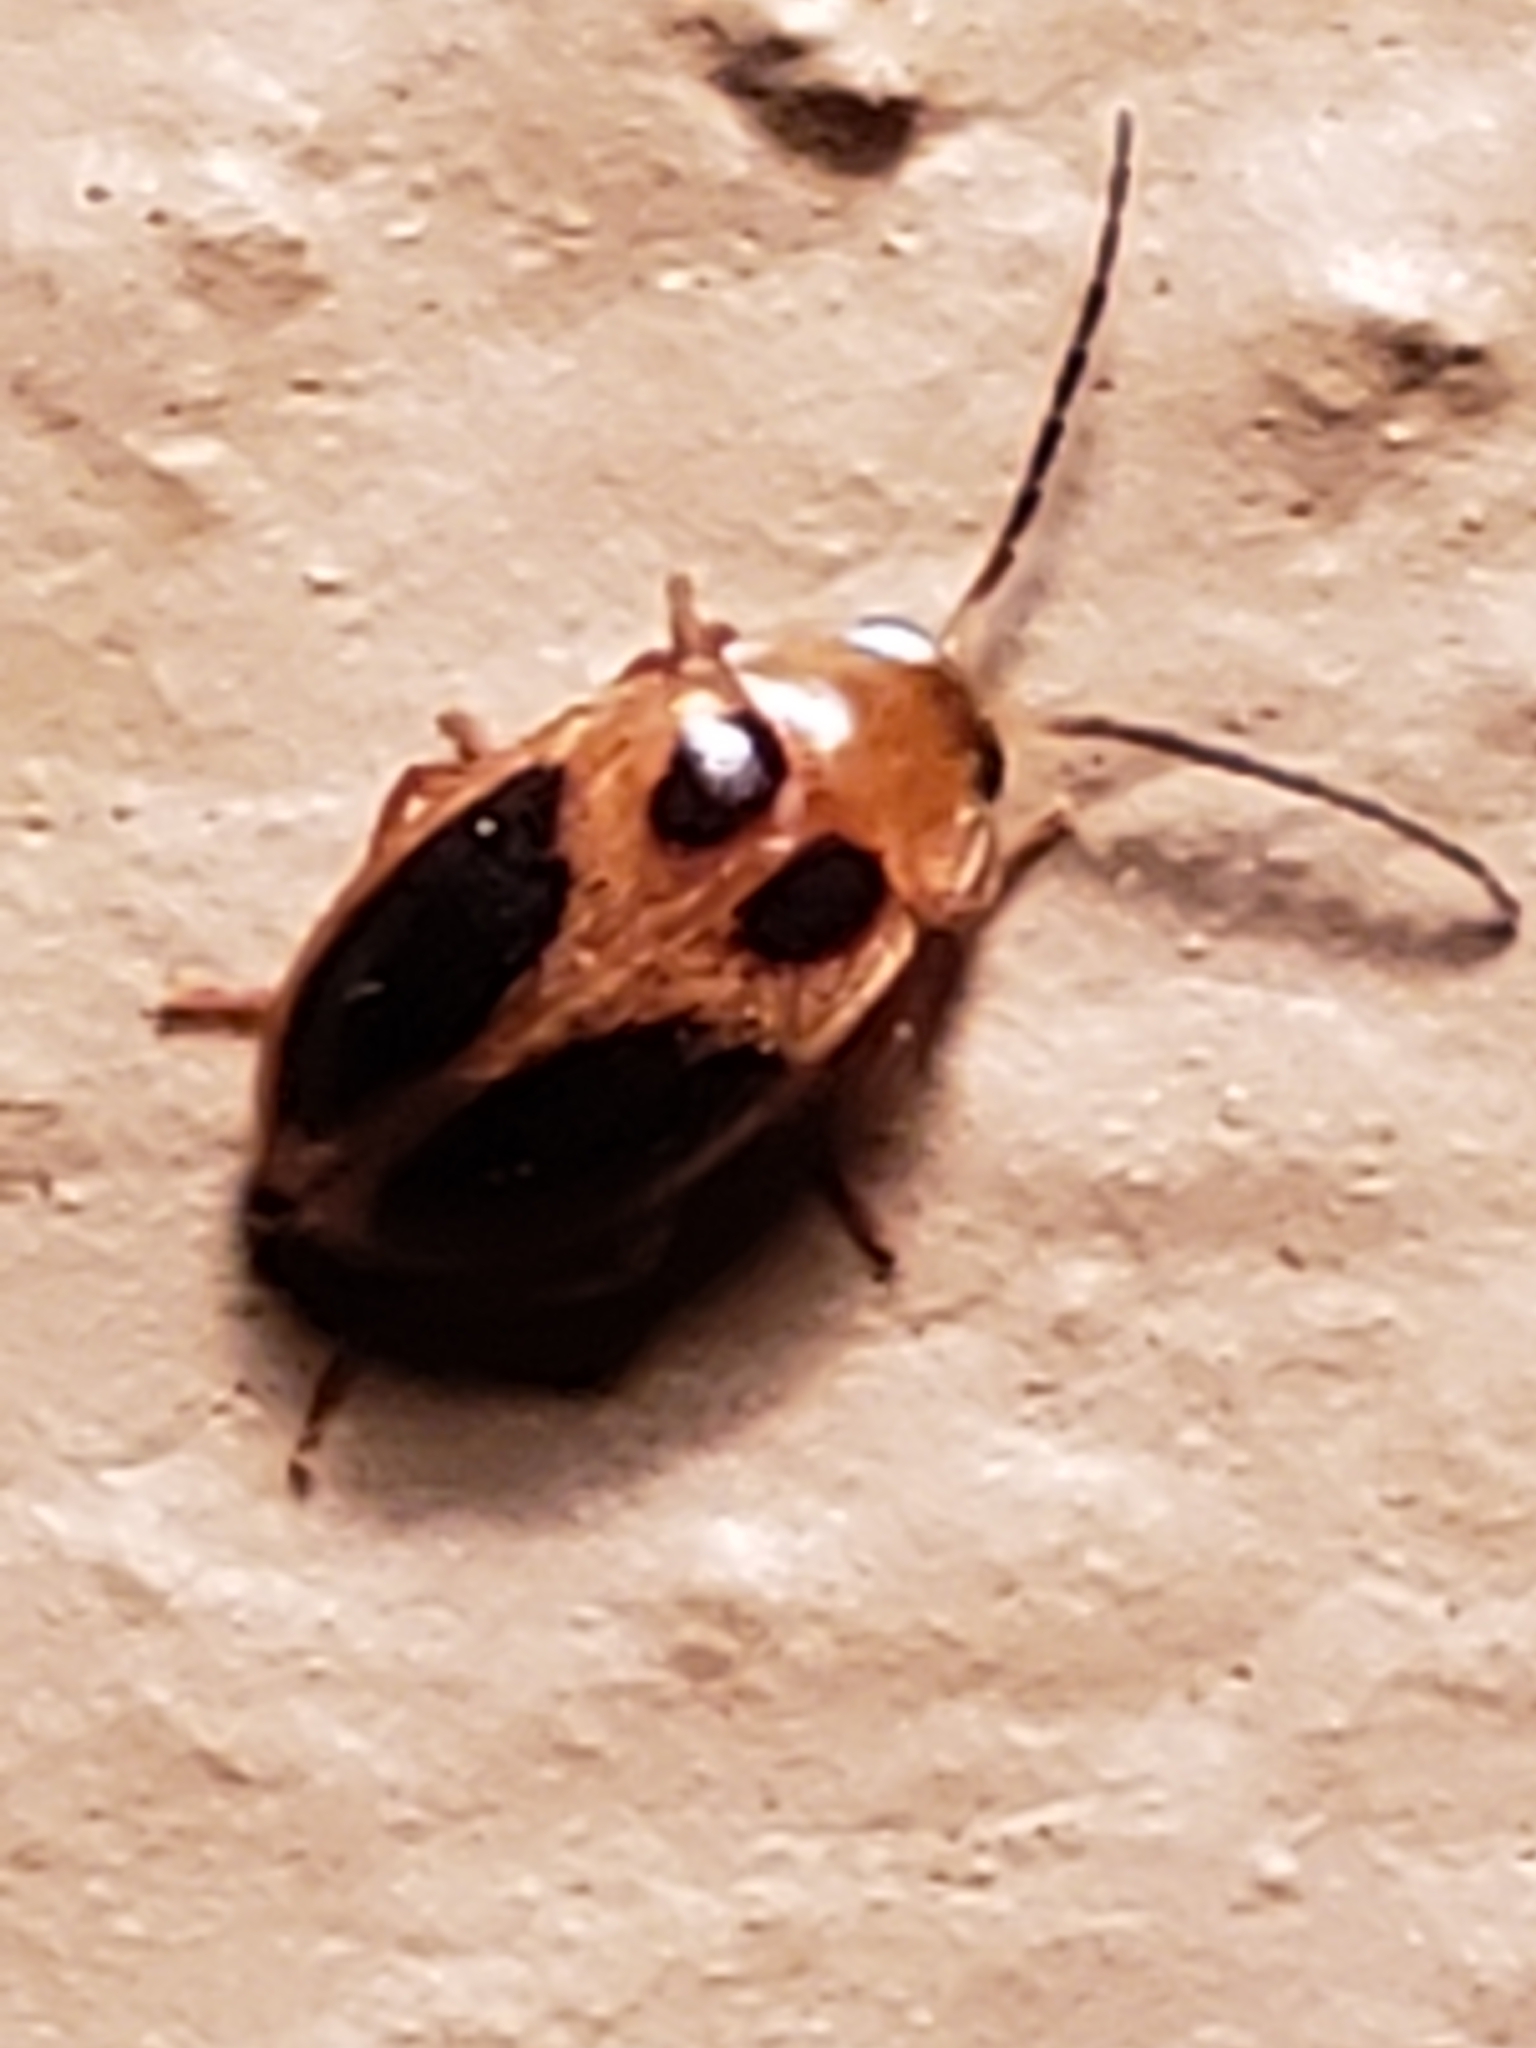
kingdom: Animalia
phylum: Arthropoda
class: Insecta
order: Coleoptera
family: Scirtidae
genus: Sacodes
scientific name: Sacodes pulchella
